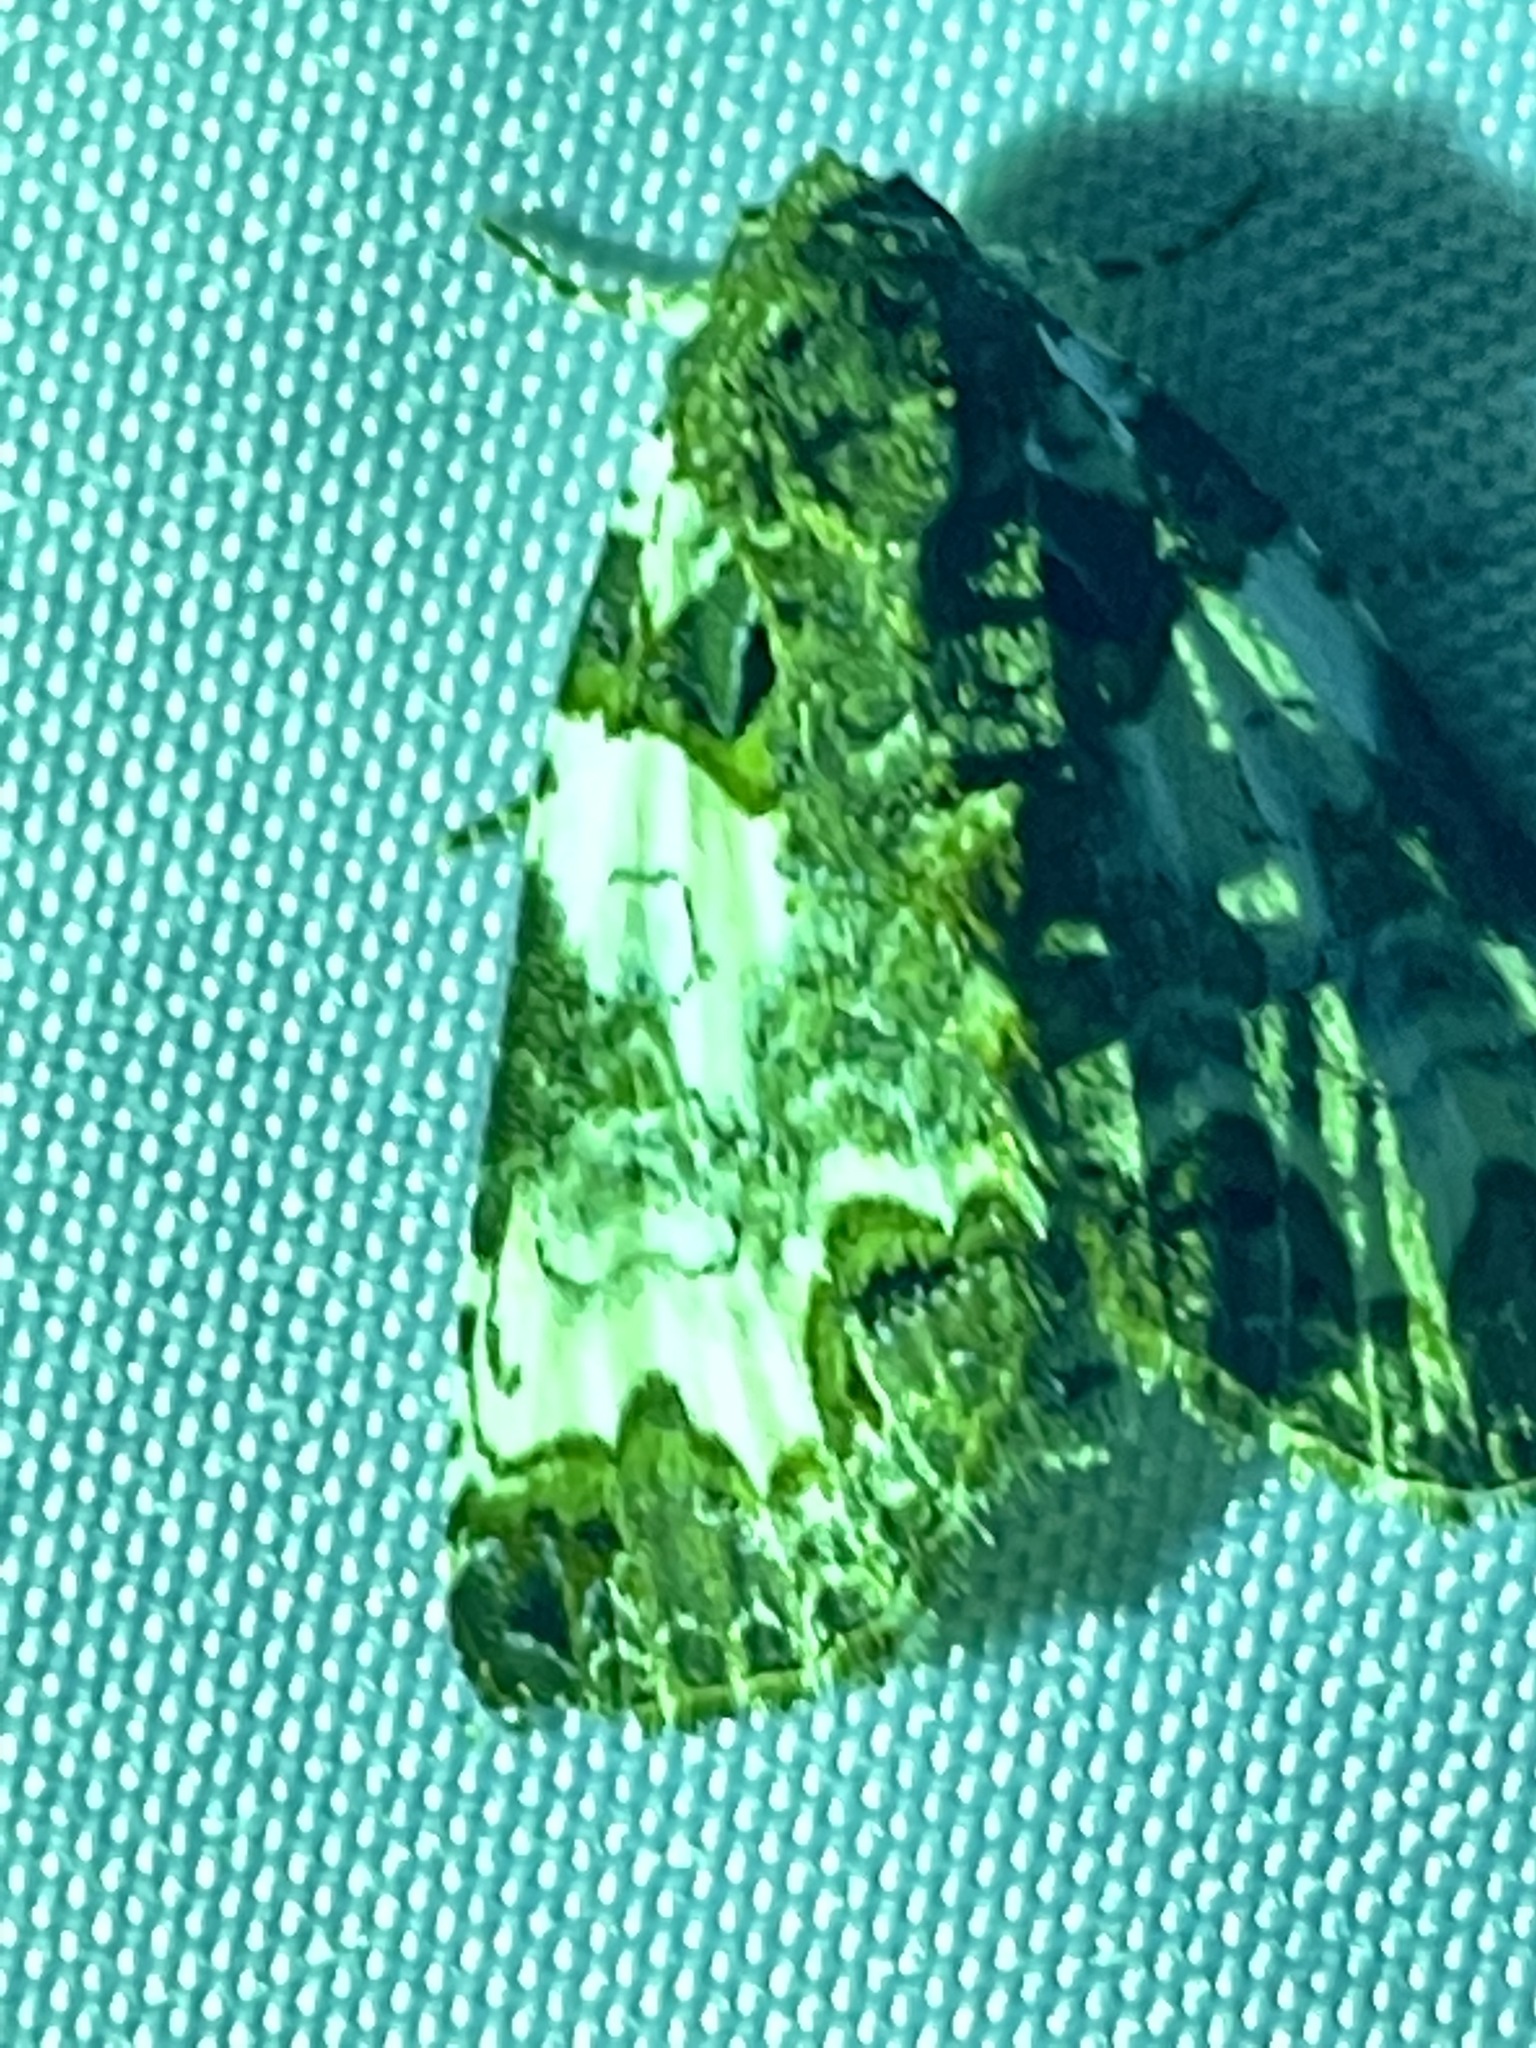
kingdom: Animalia
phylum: Arthropoda
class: Insecta
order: Lepidoptera
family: Noctuidae
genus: Cerma
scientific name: Cerma cerintha
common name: Tufted bird-dropping moth
